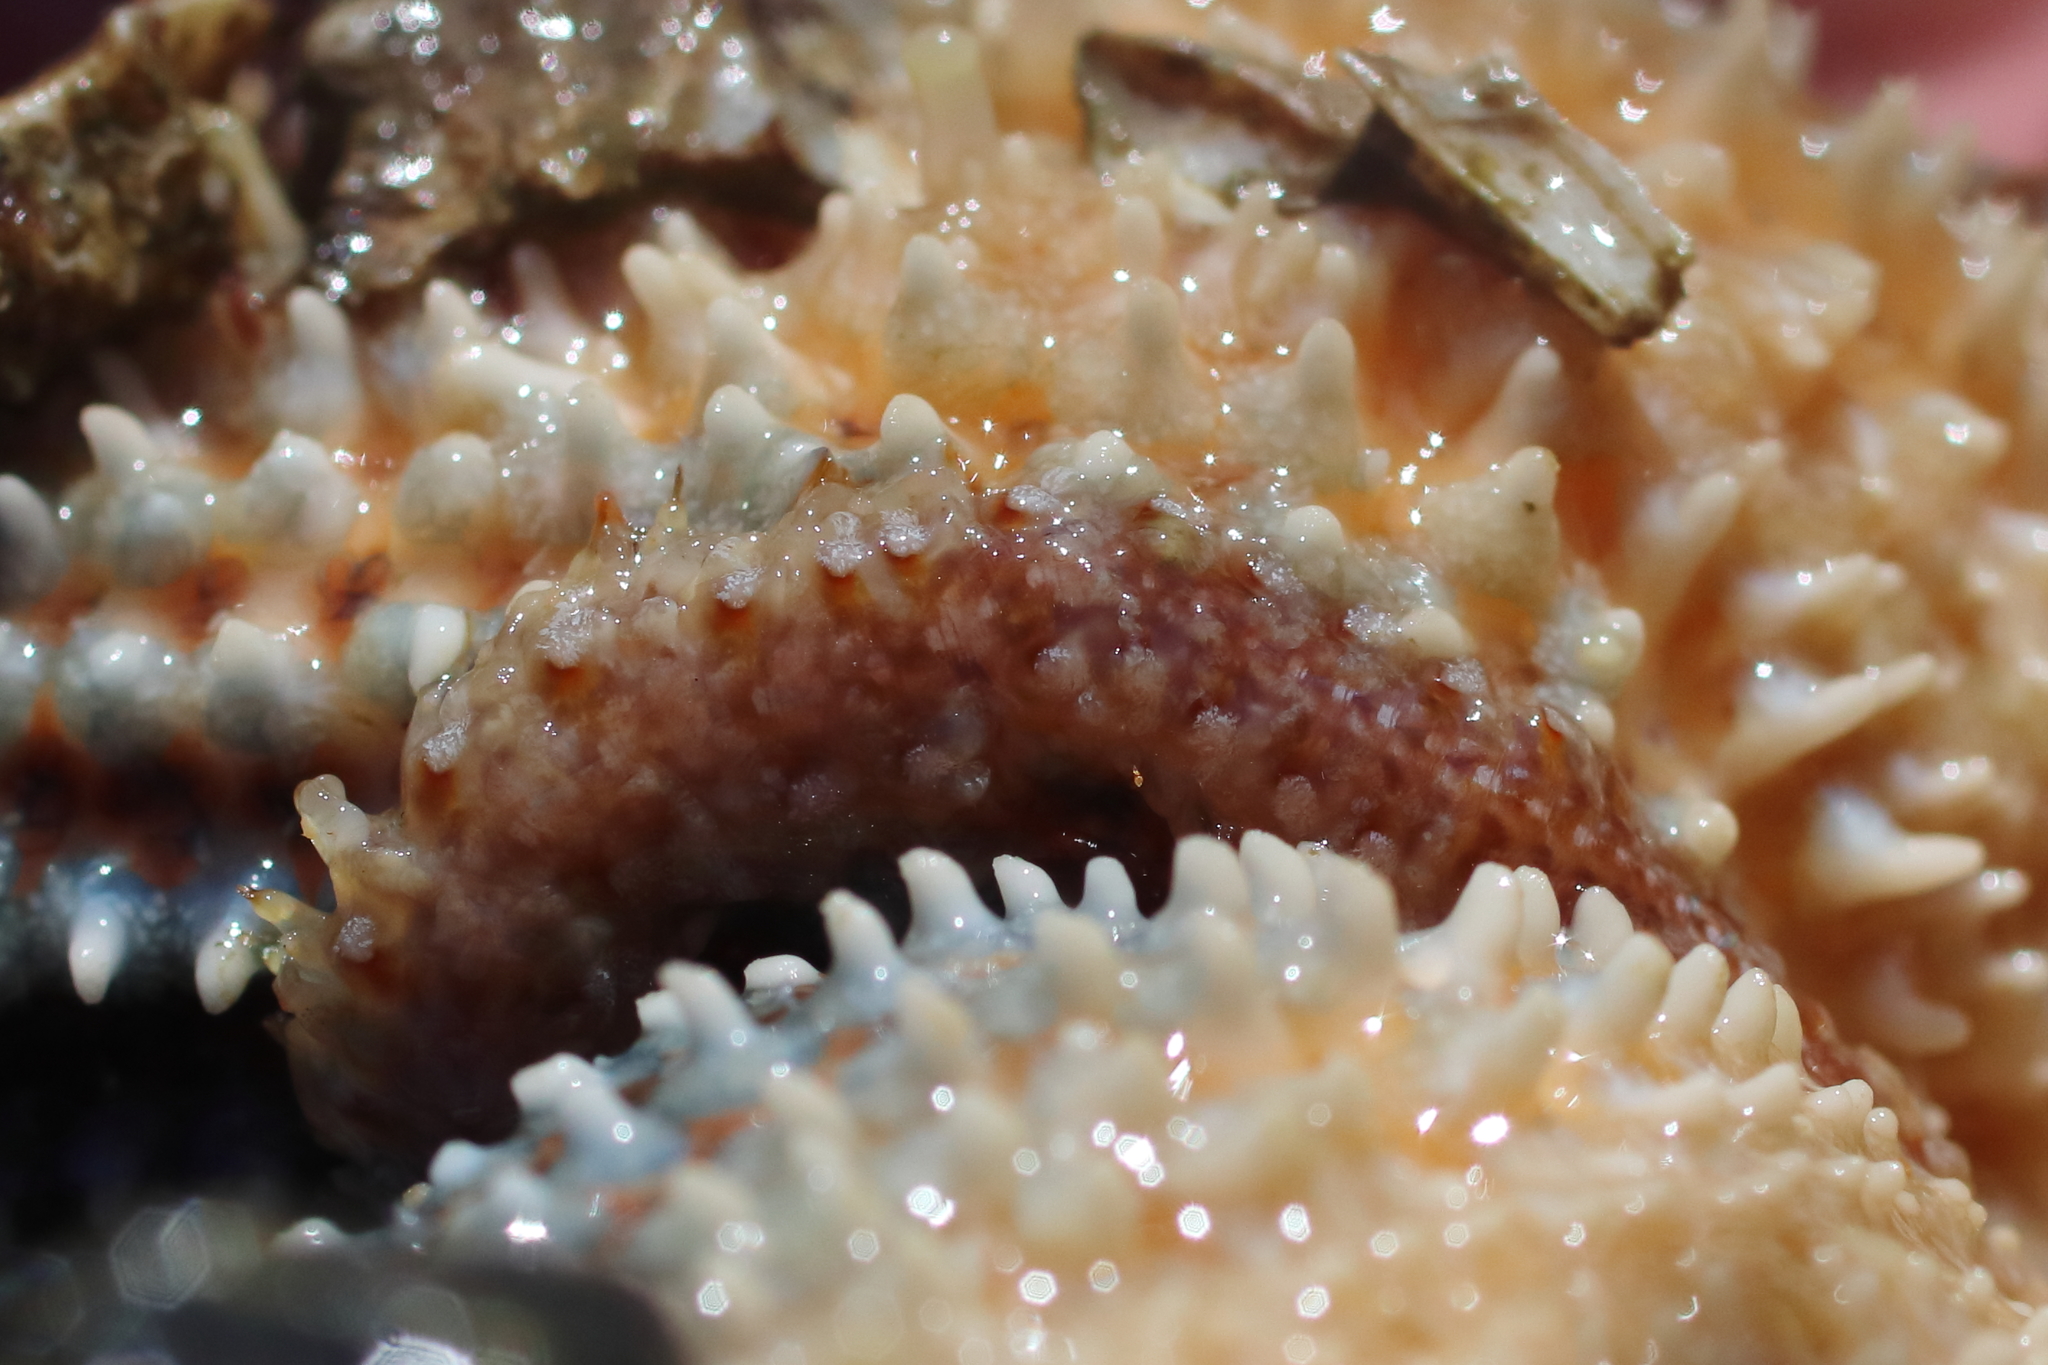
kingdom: Animalia
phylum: Annelida
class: Polychaeta
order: Phyllodocida
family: Polynoidae
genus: Arctonoe
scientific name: Arctonoe fragilis
